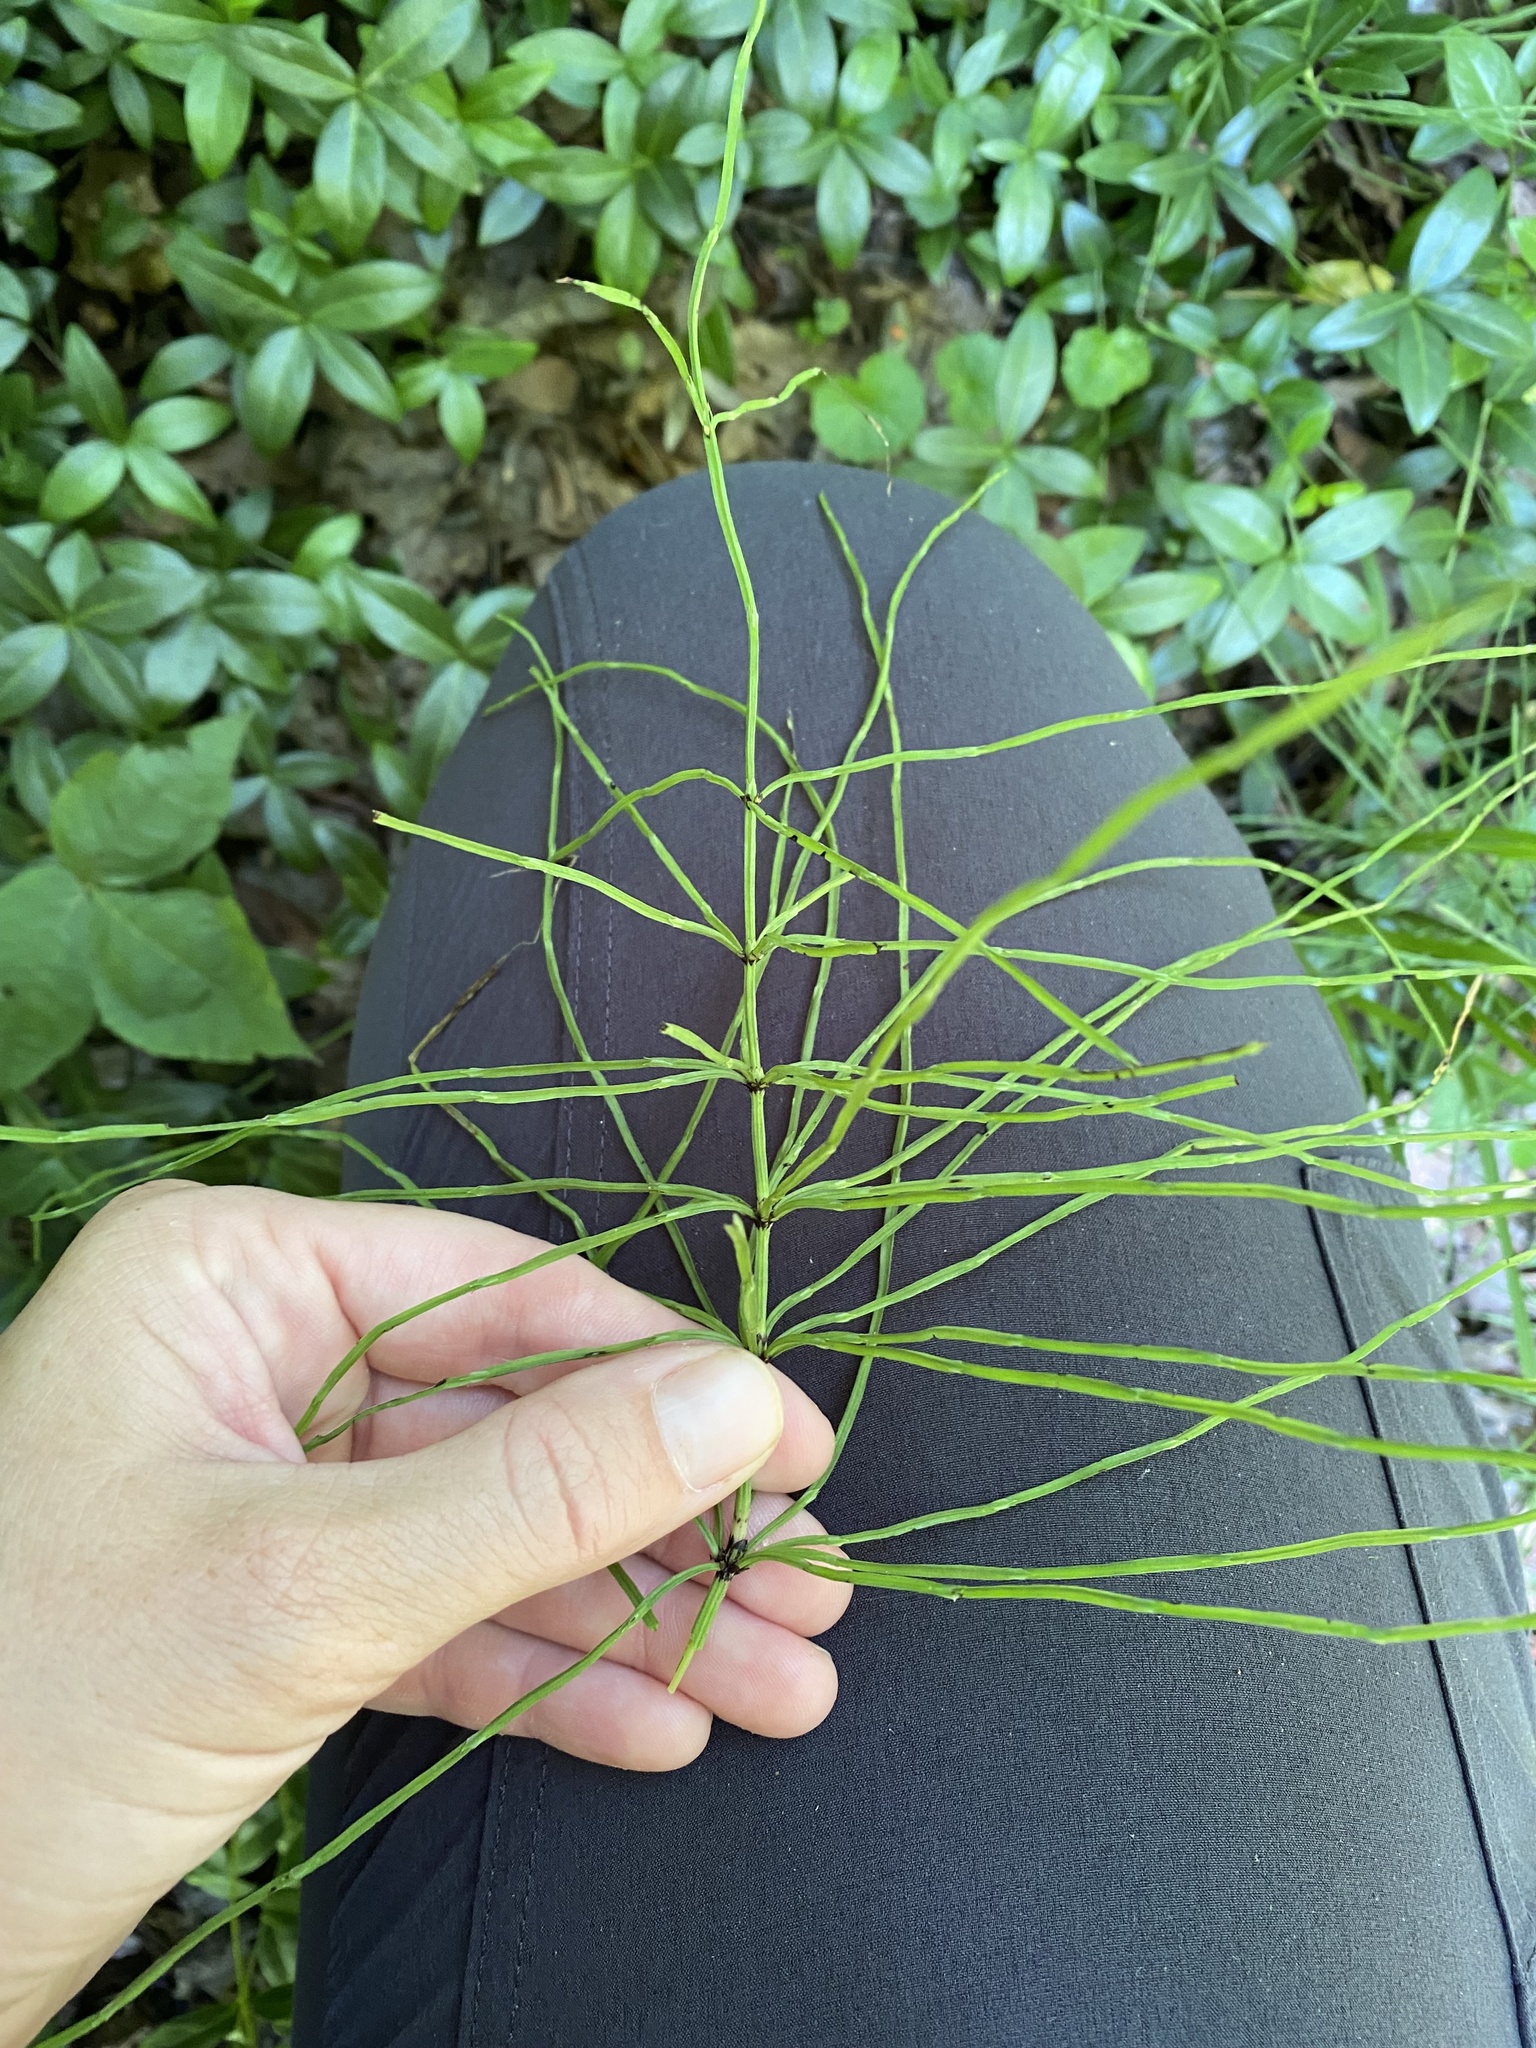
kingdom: Plantae
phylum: Tracheophyta
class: Polypodiopsida
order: Equisetales
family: Equisetaceae
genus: Equisetum
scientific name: Equisetum arvense
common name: Field horsetail
